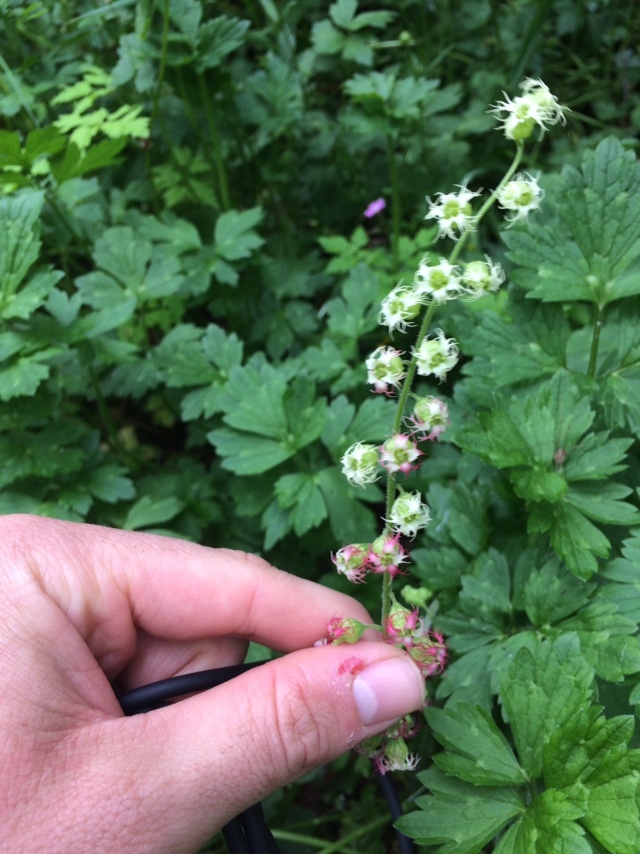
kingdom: Plantae
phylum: Tracheophyta
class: Magnoliopsida
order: Saxifragales
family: Saxifragaceae
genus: Tellima
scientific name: Tellima grandiflora
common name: Fringecups
